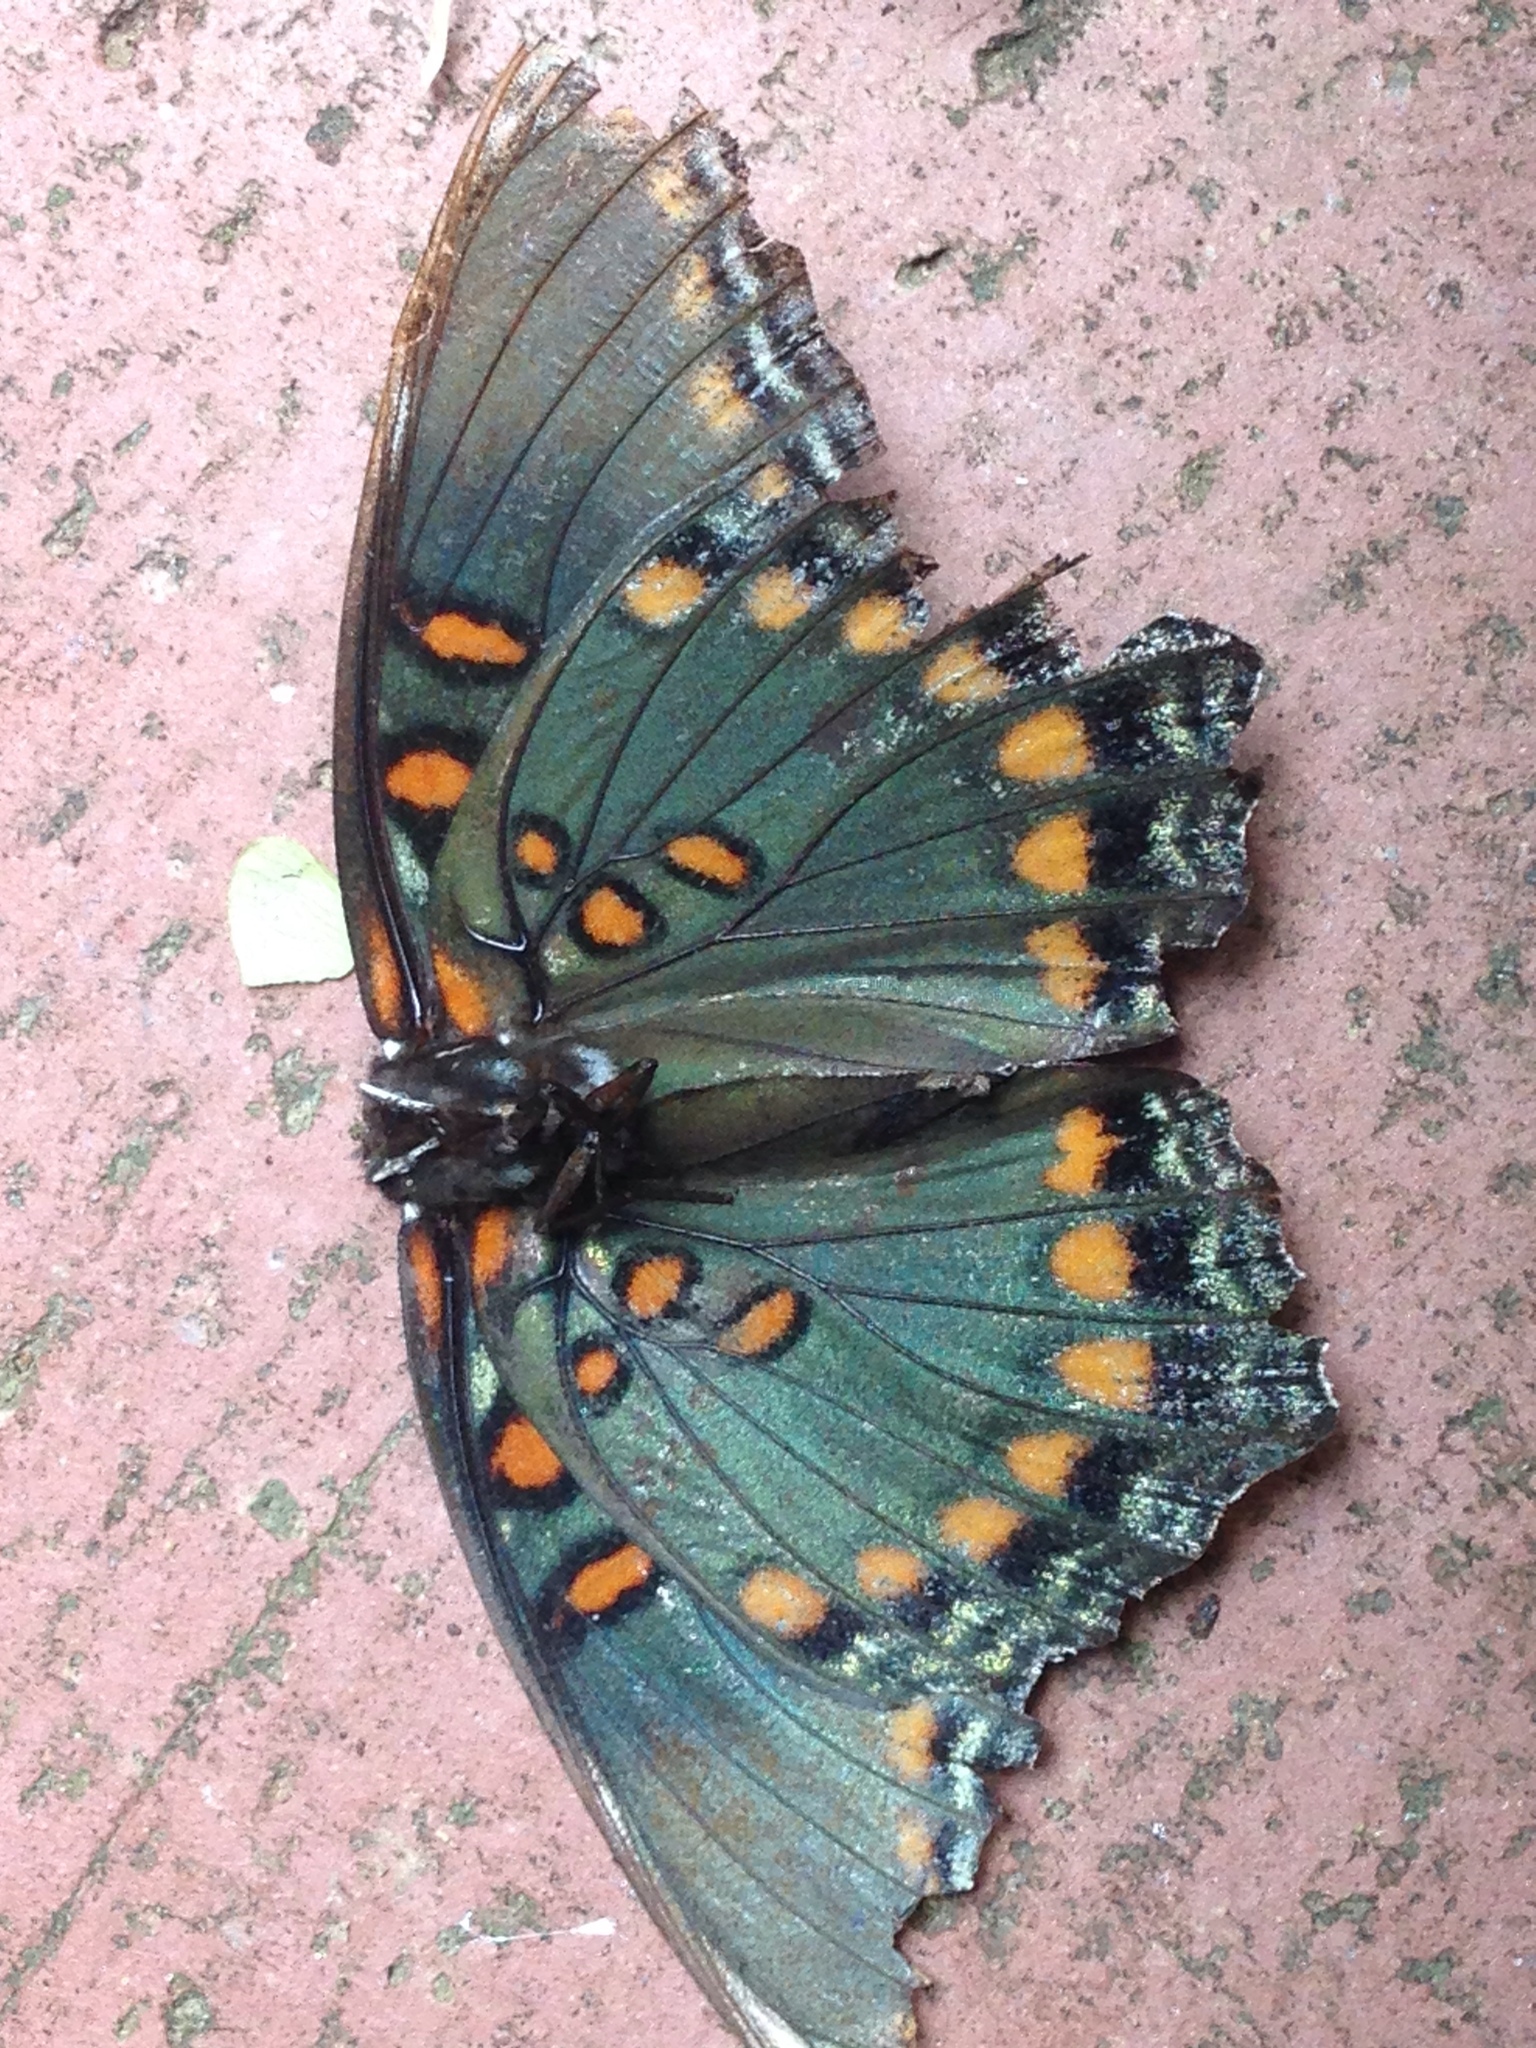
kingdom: Animalia
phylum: Arthropoda
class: Insecta
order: Lepidoptera
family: Nymphalidae
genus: Limenitis
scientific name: Limenitis astyanax
